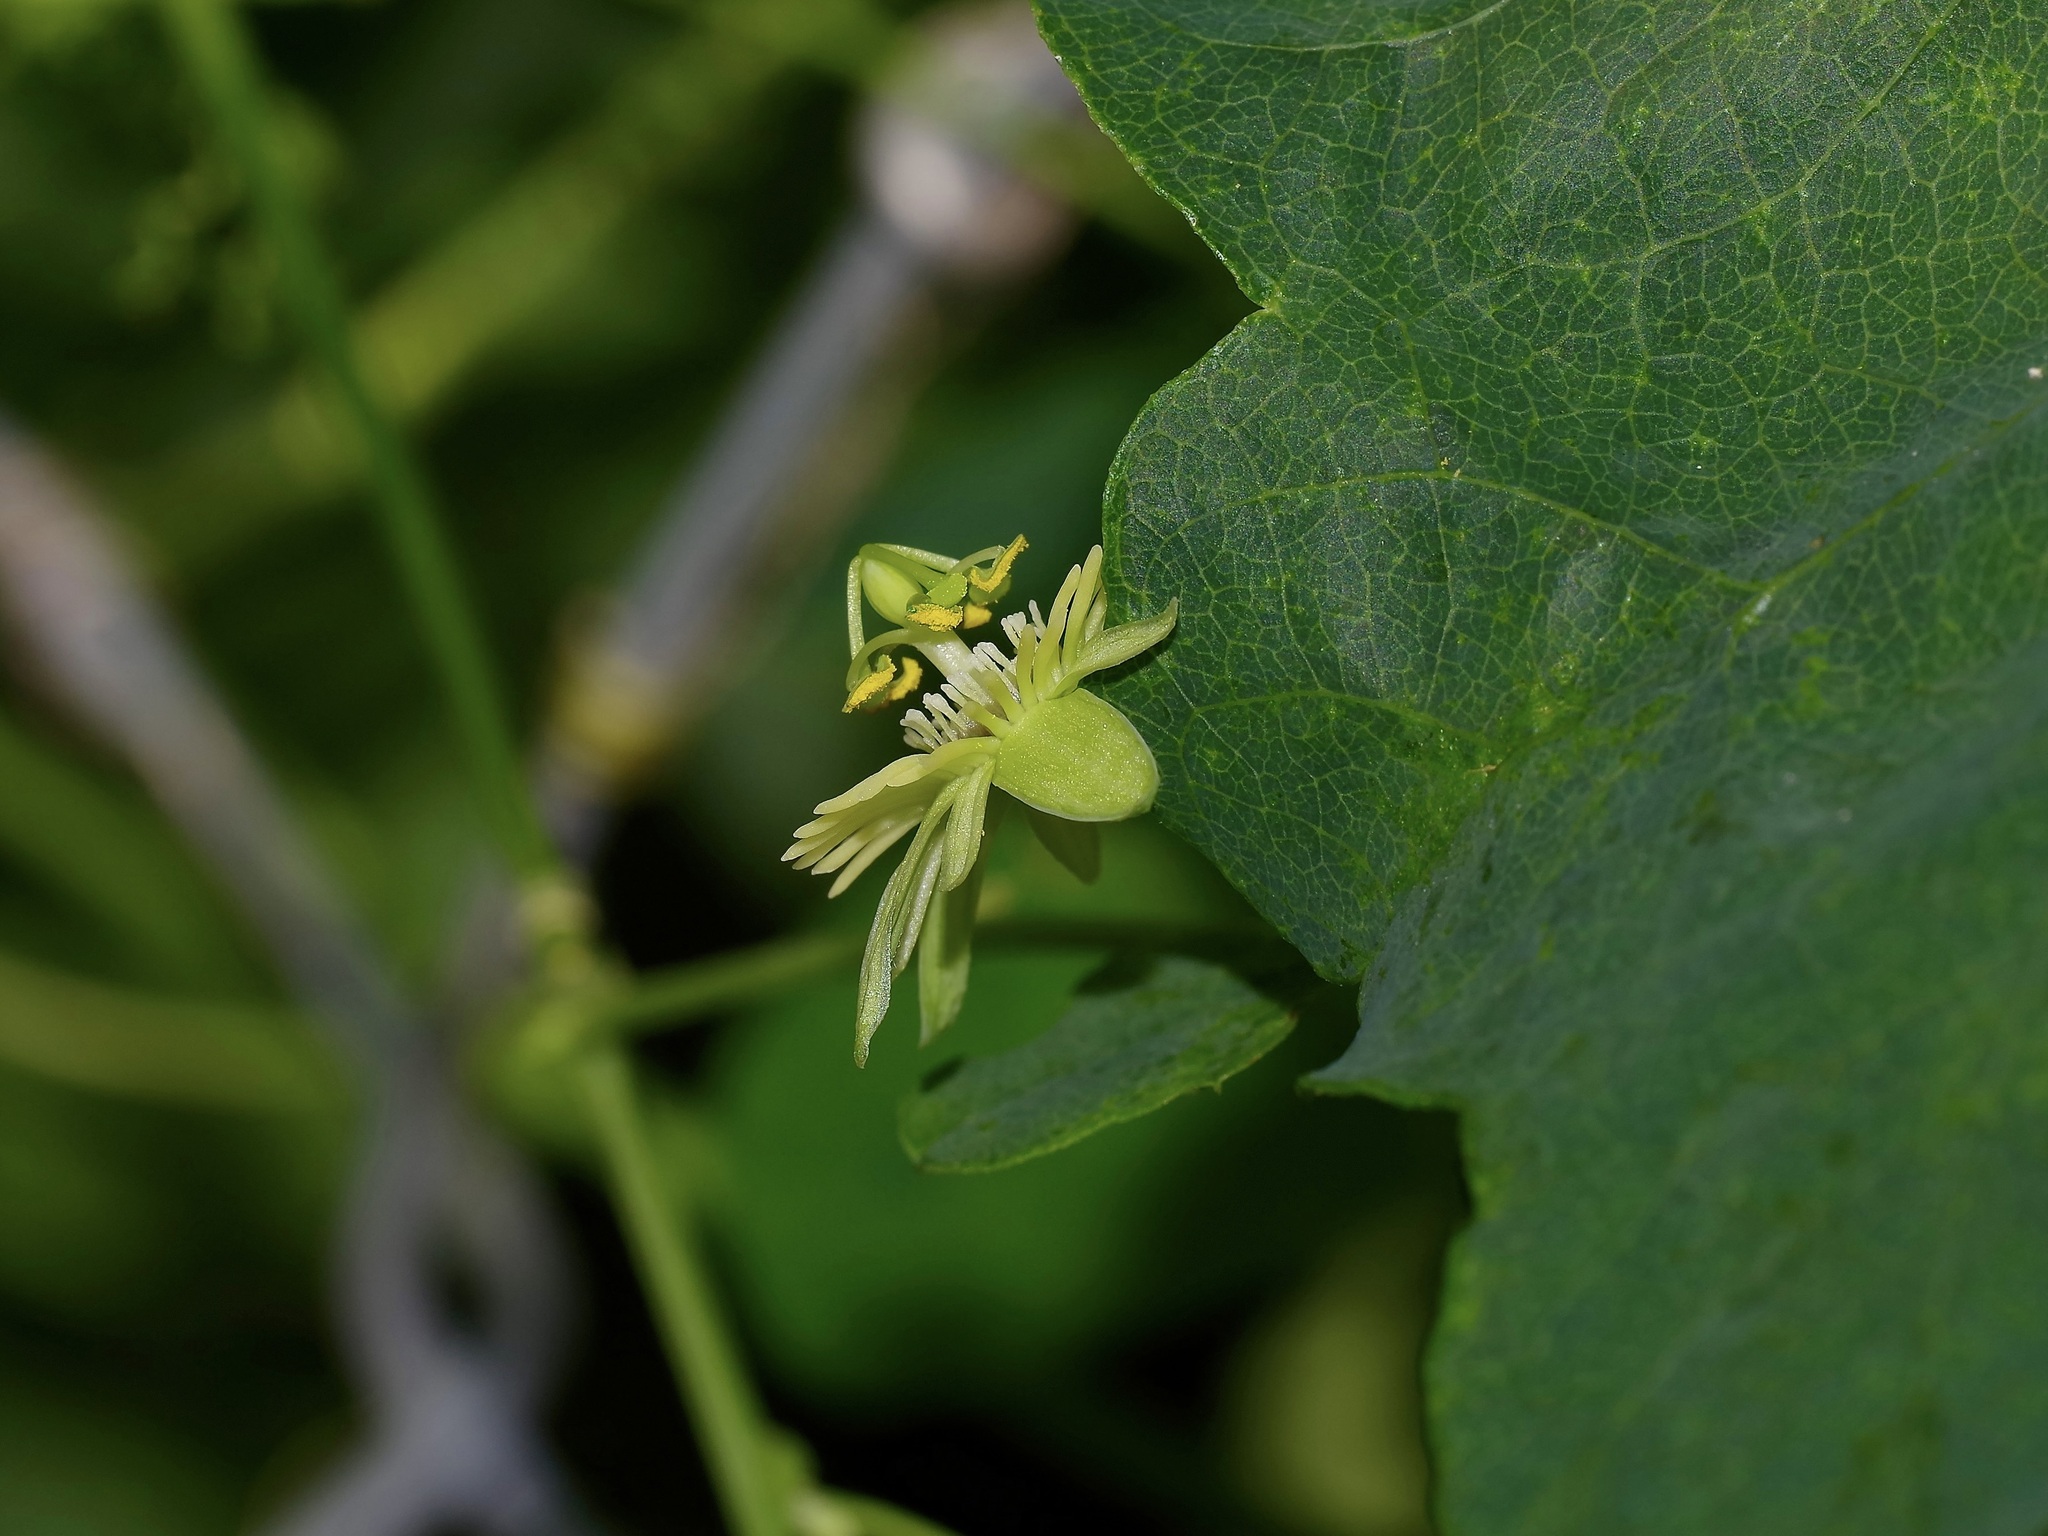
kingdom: Plantae
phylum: Tracheophyta
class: Magnoliopsida
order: Malpighiales
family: Passifloraceae
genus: Passiflora
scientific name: Passiflora lutea
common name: Yellow passionflower
